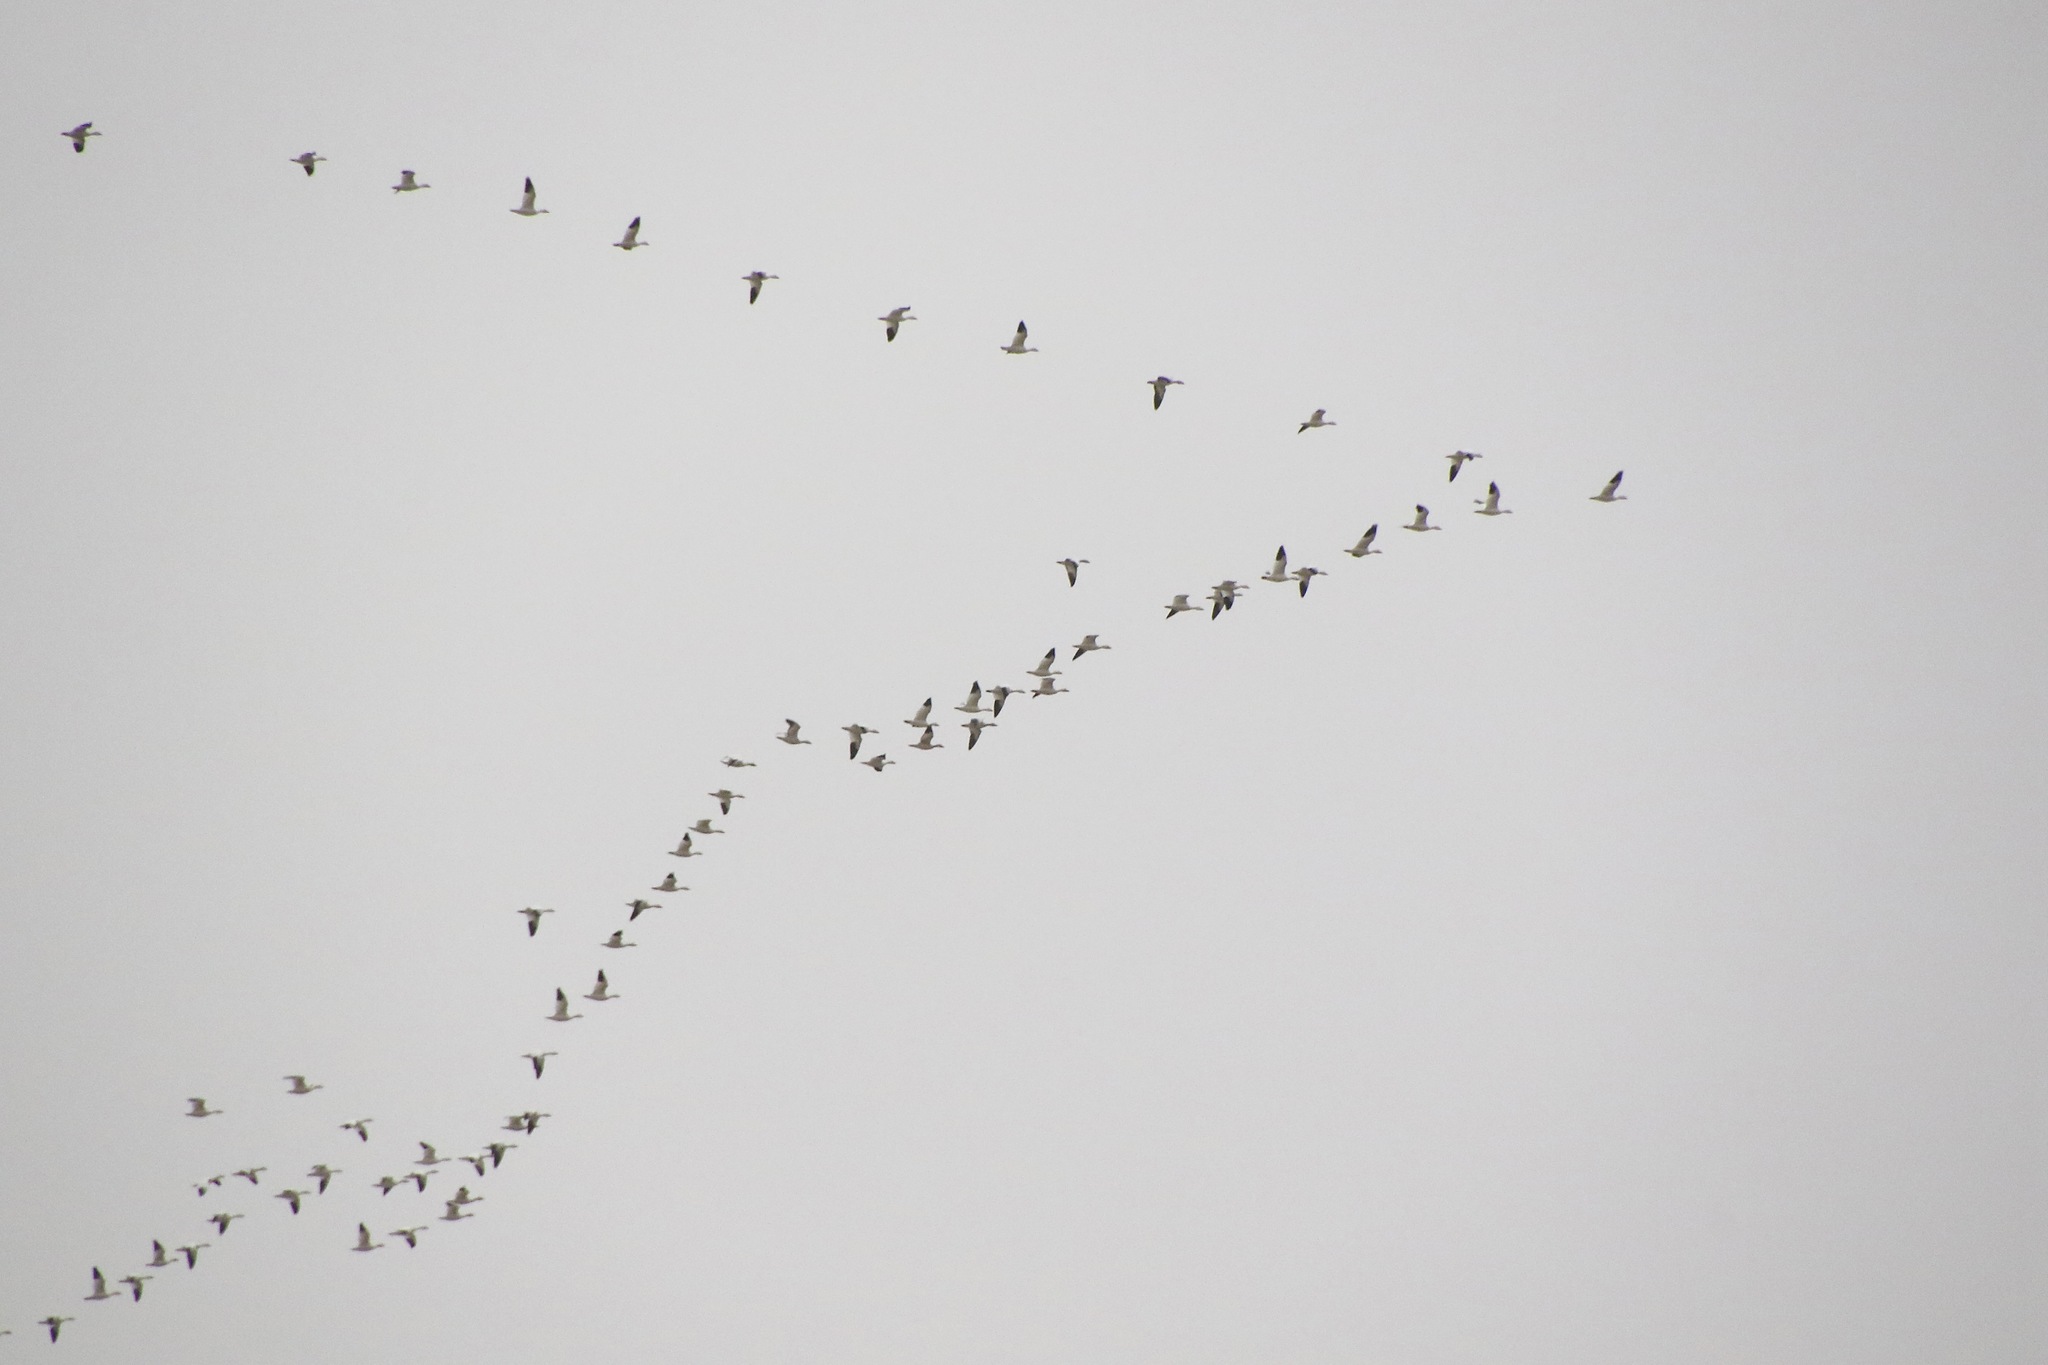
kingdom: Animalia
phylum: Chordata
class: Aves
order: Anseriformes
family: Anatidae
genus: Anser
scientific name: Anser caerulescens
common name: Snow goose
